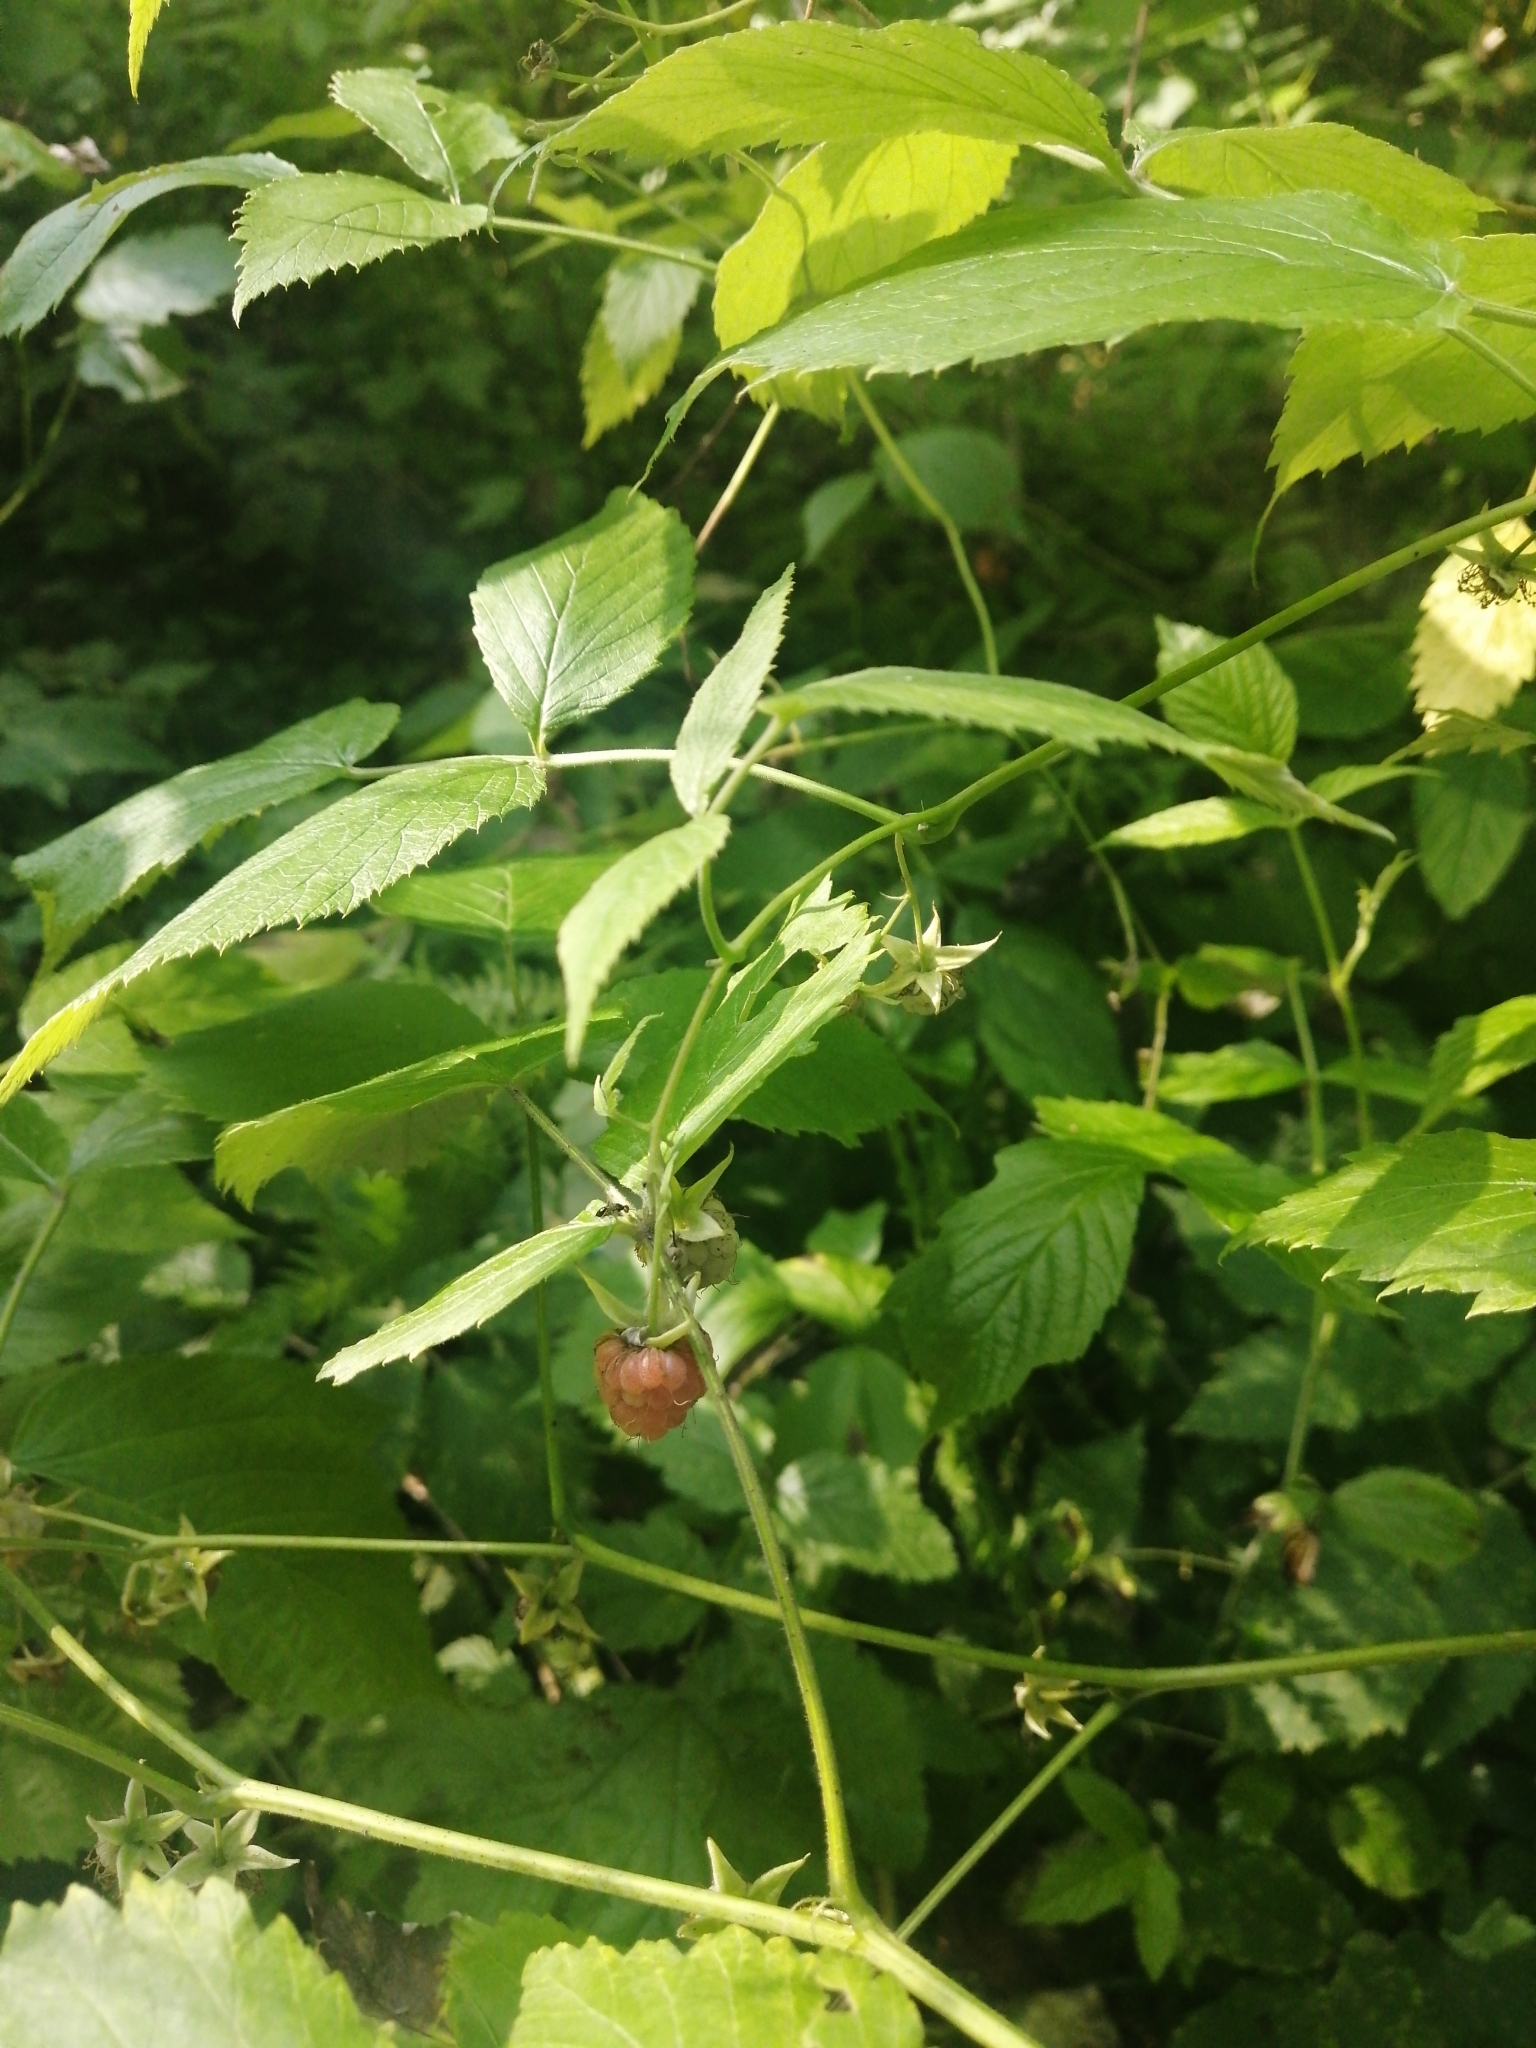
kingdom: Plantae
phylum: Tracheophyta
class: Magnoliopsida
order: Rosales
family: Rosaceae
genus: Rubus
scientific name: Rubus idaeus
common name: Raspberry
